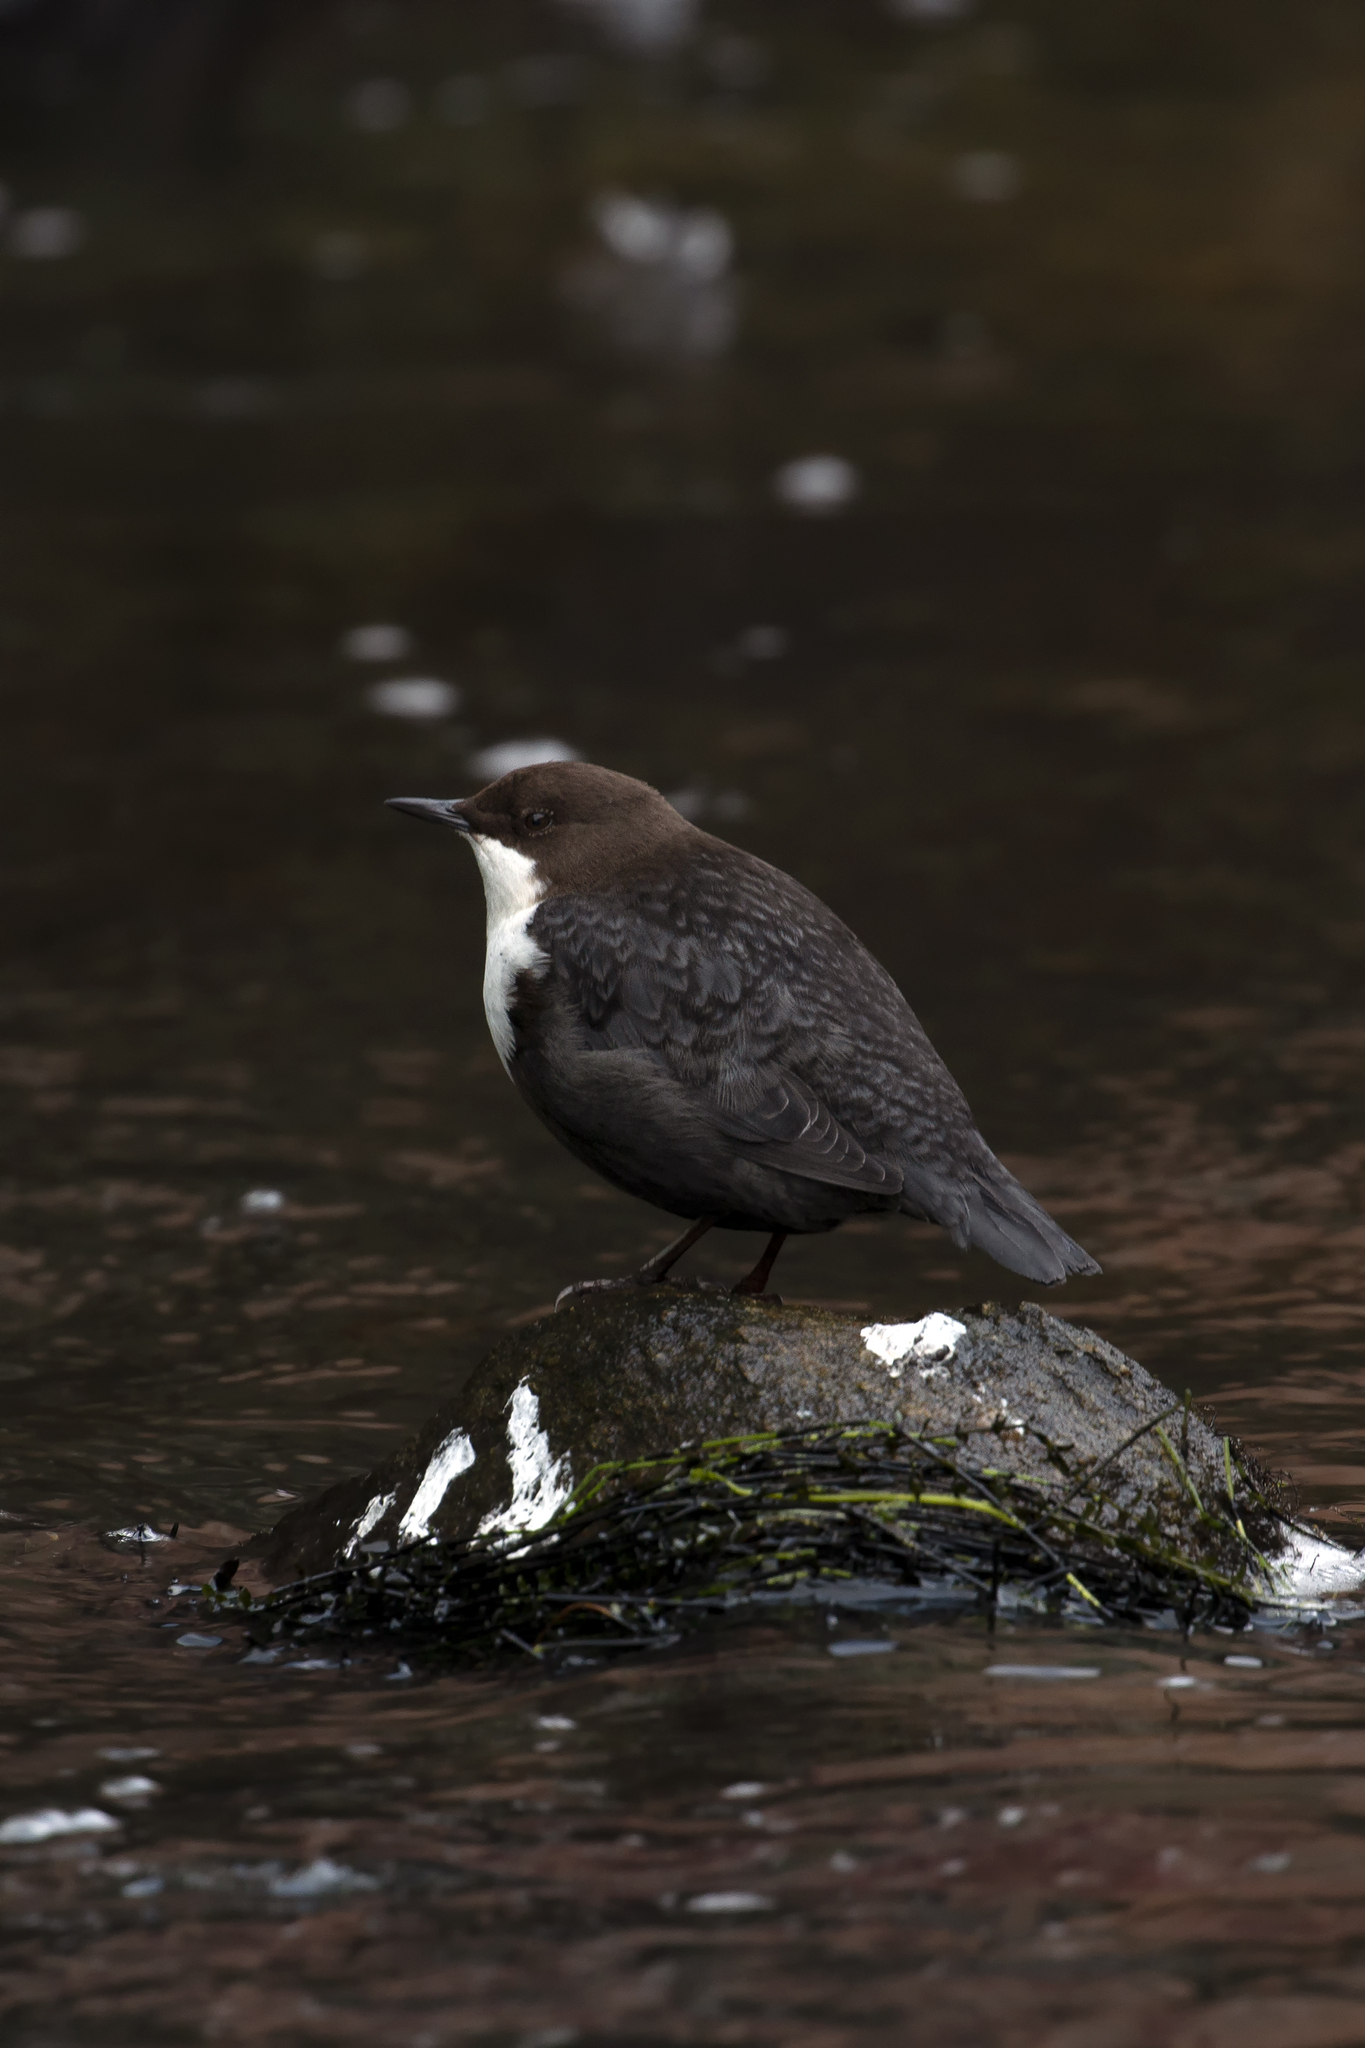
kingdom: Animalia
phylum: Chordata
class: Aves
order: Passeriformes
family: Cinclidae
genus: Cinclus
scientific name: Cinclus cinclus
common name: White-throated dipper
